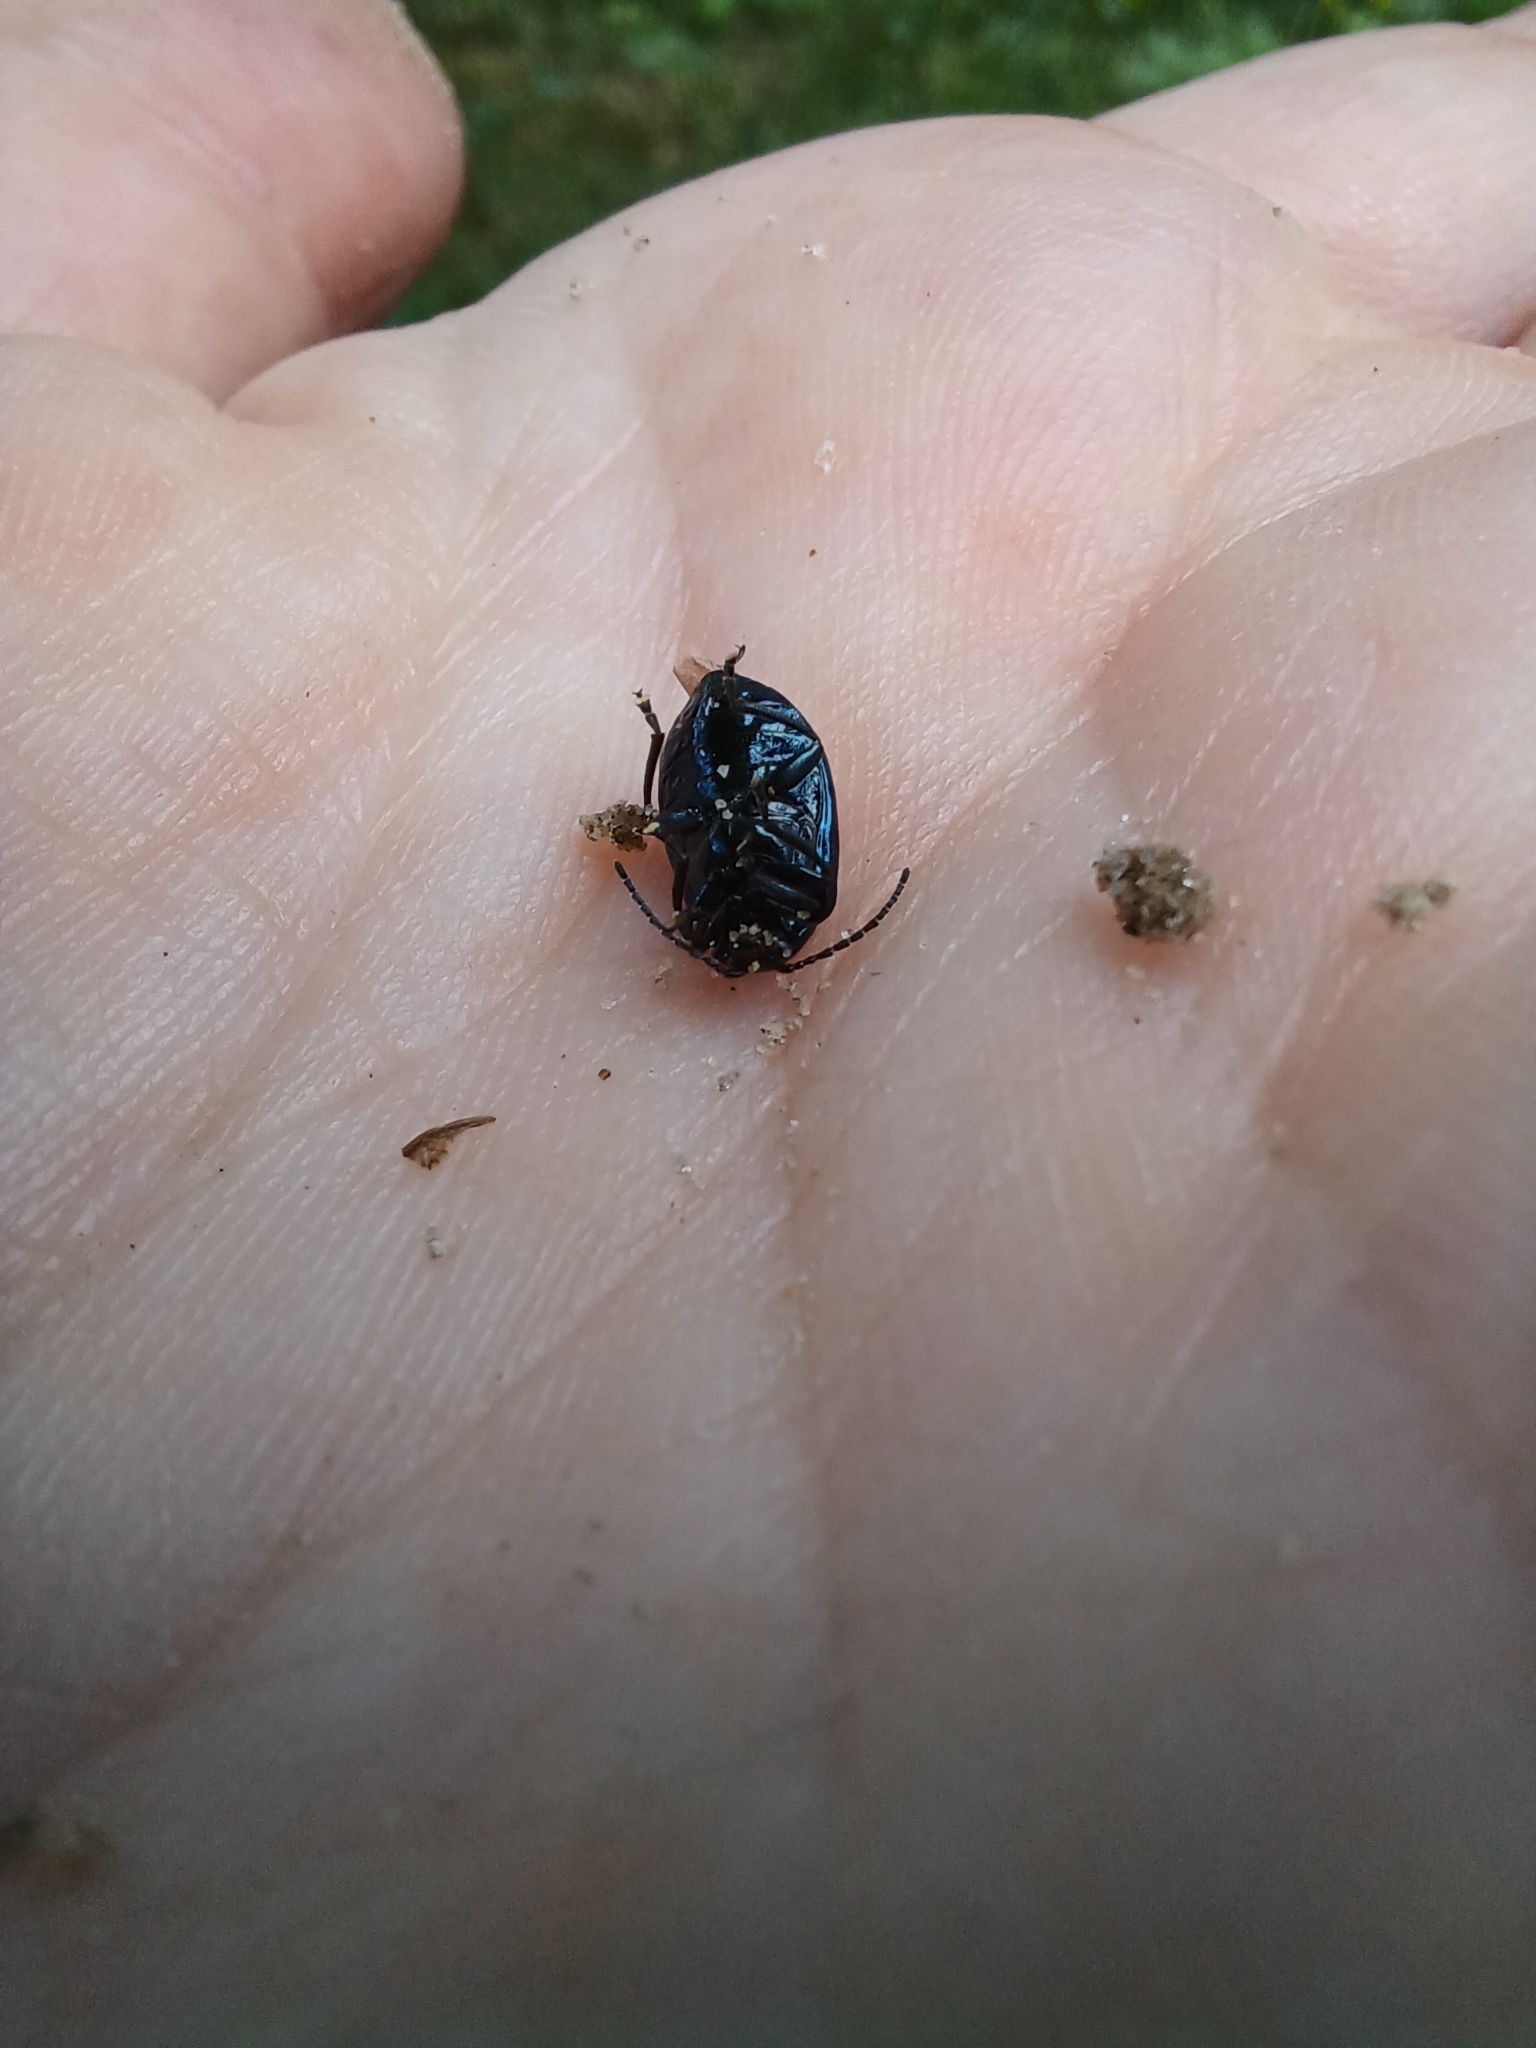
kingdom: Animalia
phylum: Arthropoda
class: Insecta
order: Coleoptera
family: Chrysomelidae
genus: Agelastica
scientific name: Agelastica alni
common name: Alder leaf beetle
